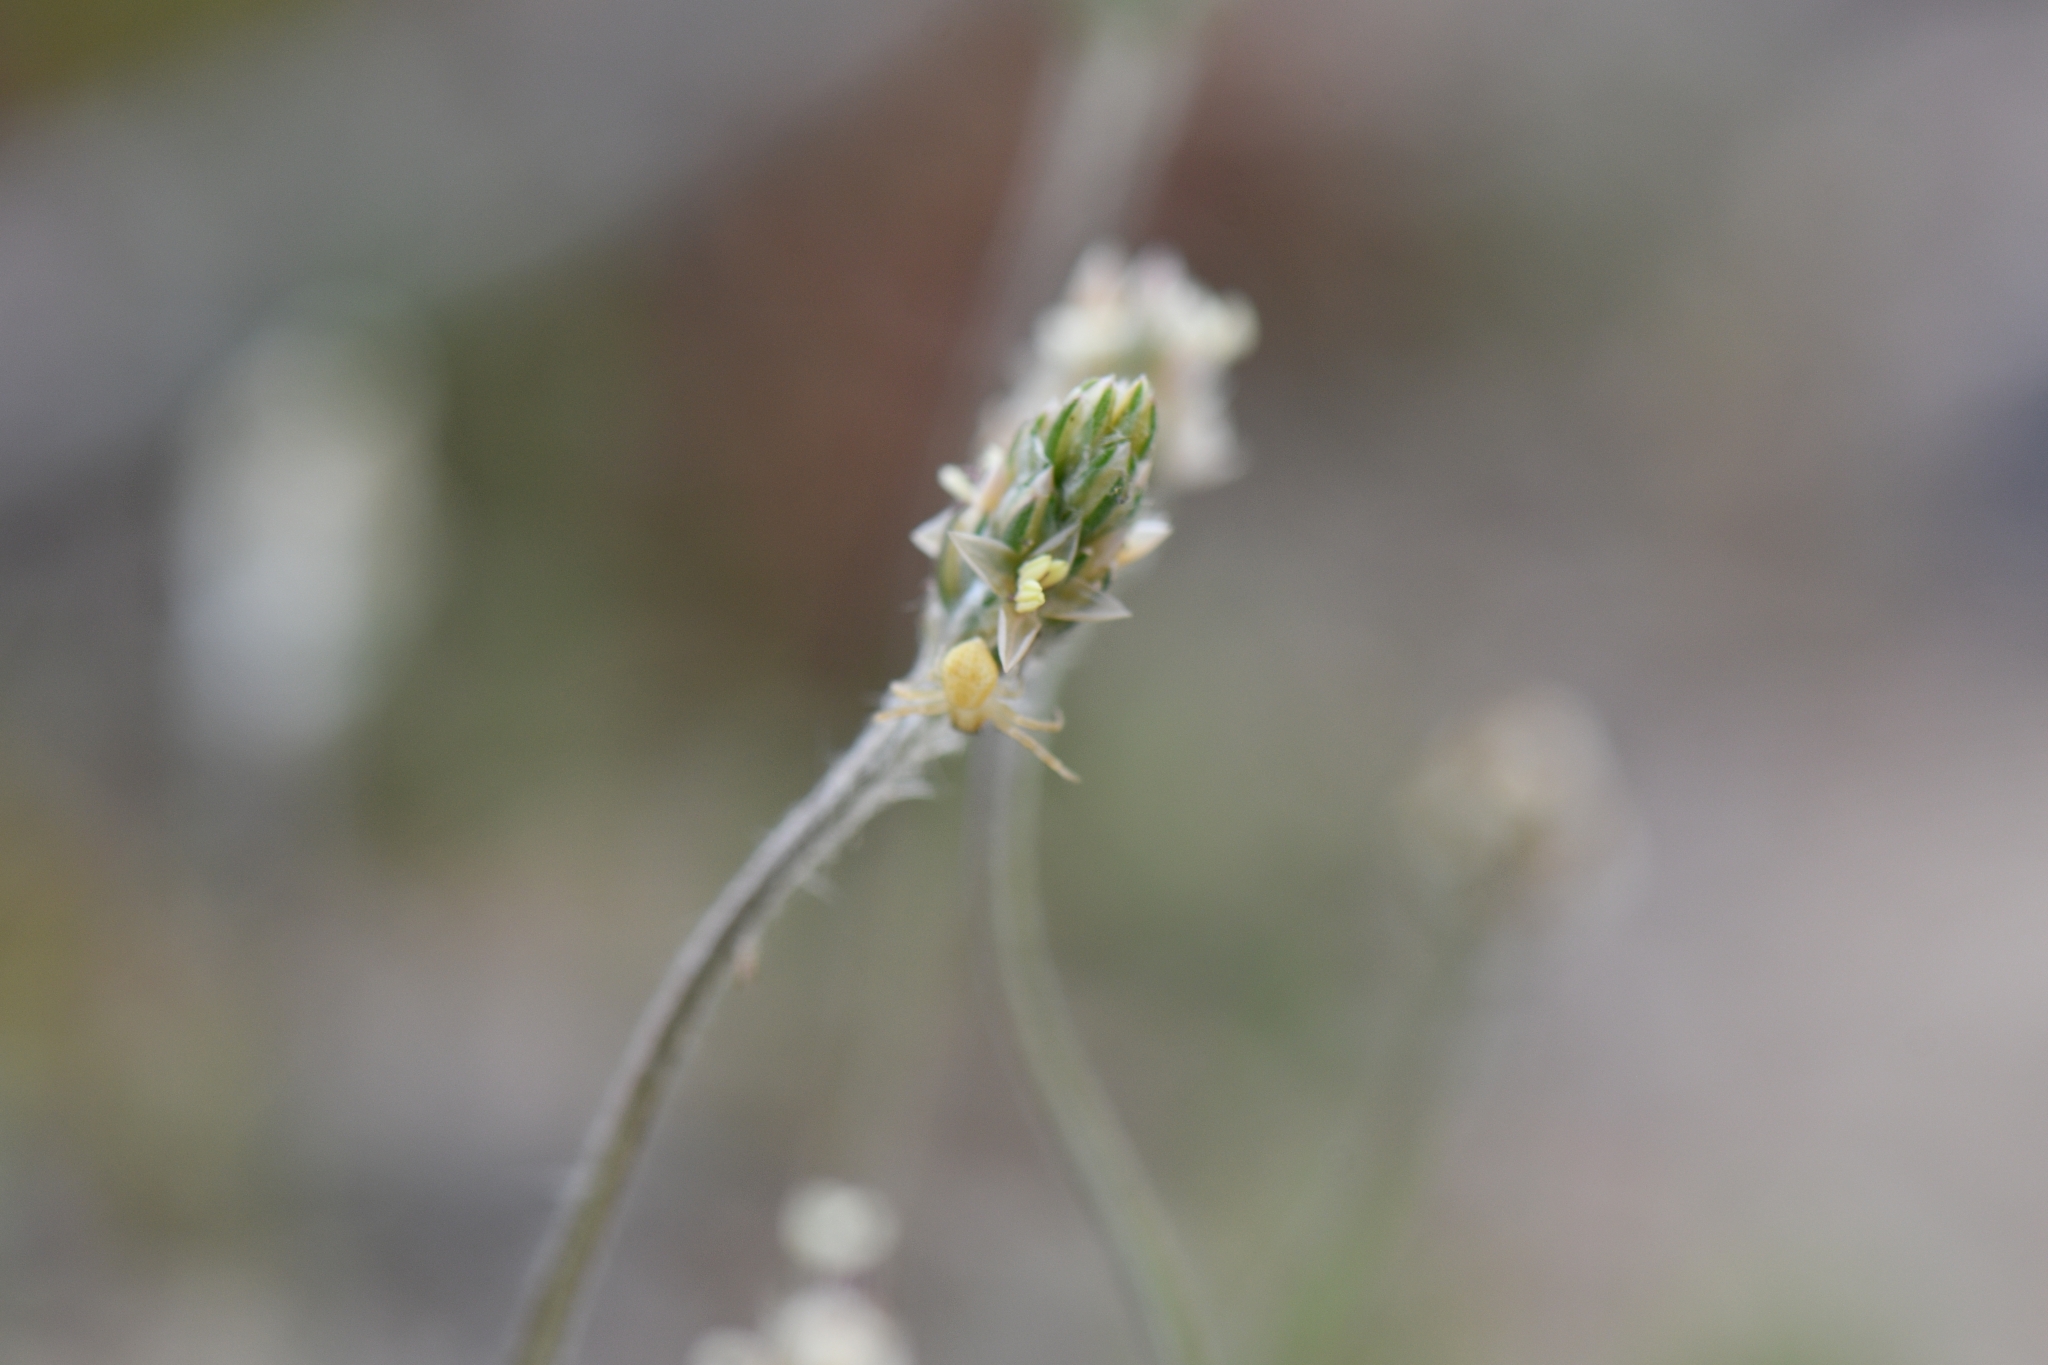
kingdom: Plantae
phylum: Tracheophyta
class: Magnoliopsida
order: Lamiales
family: Plantaginaceae
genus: Plantago
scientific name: Plantago ovata
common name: Blond plantain
